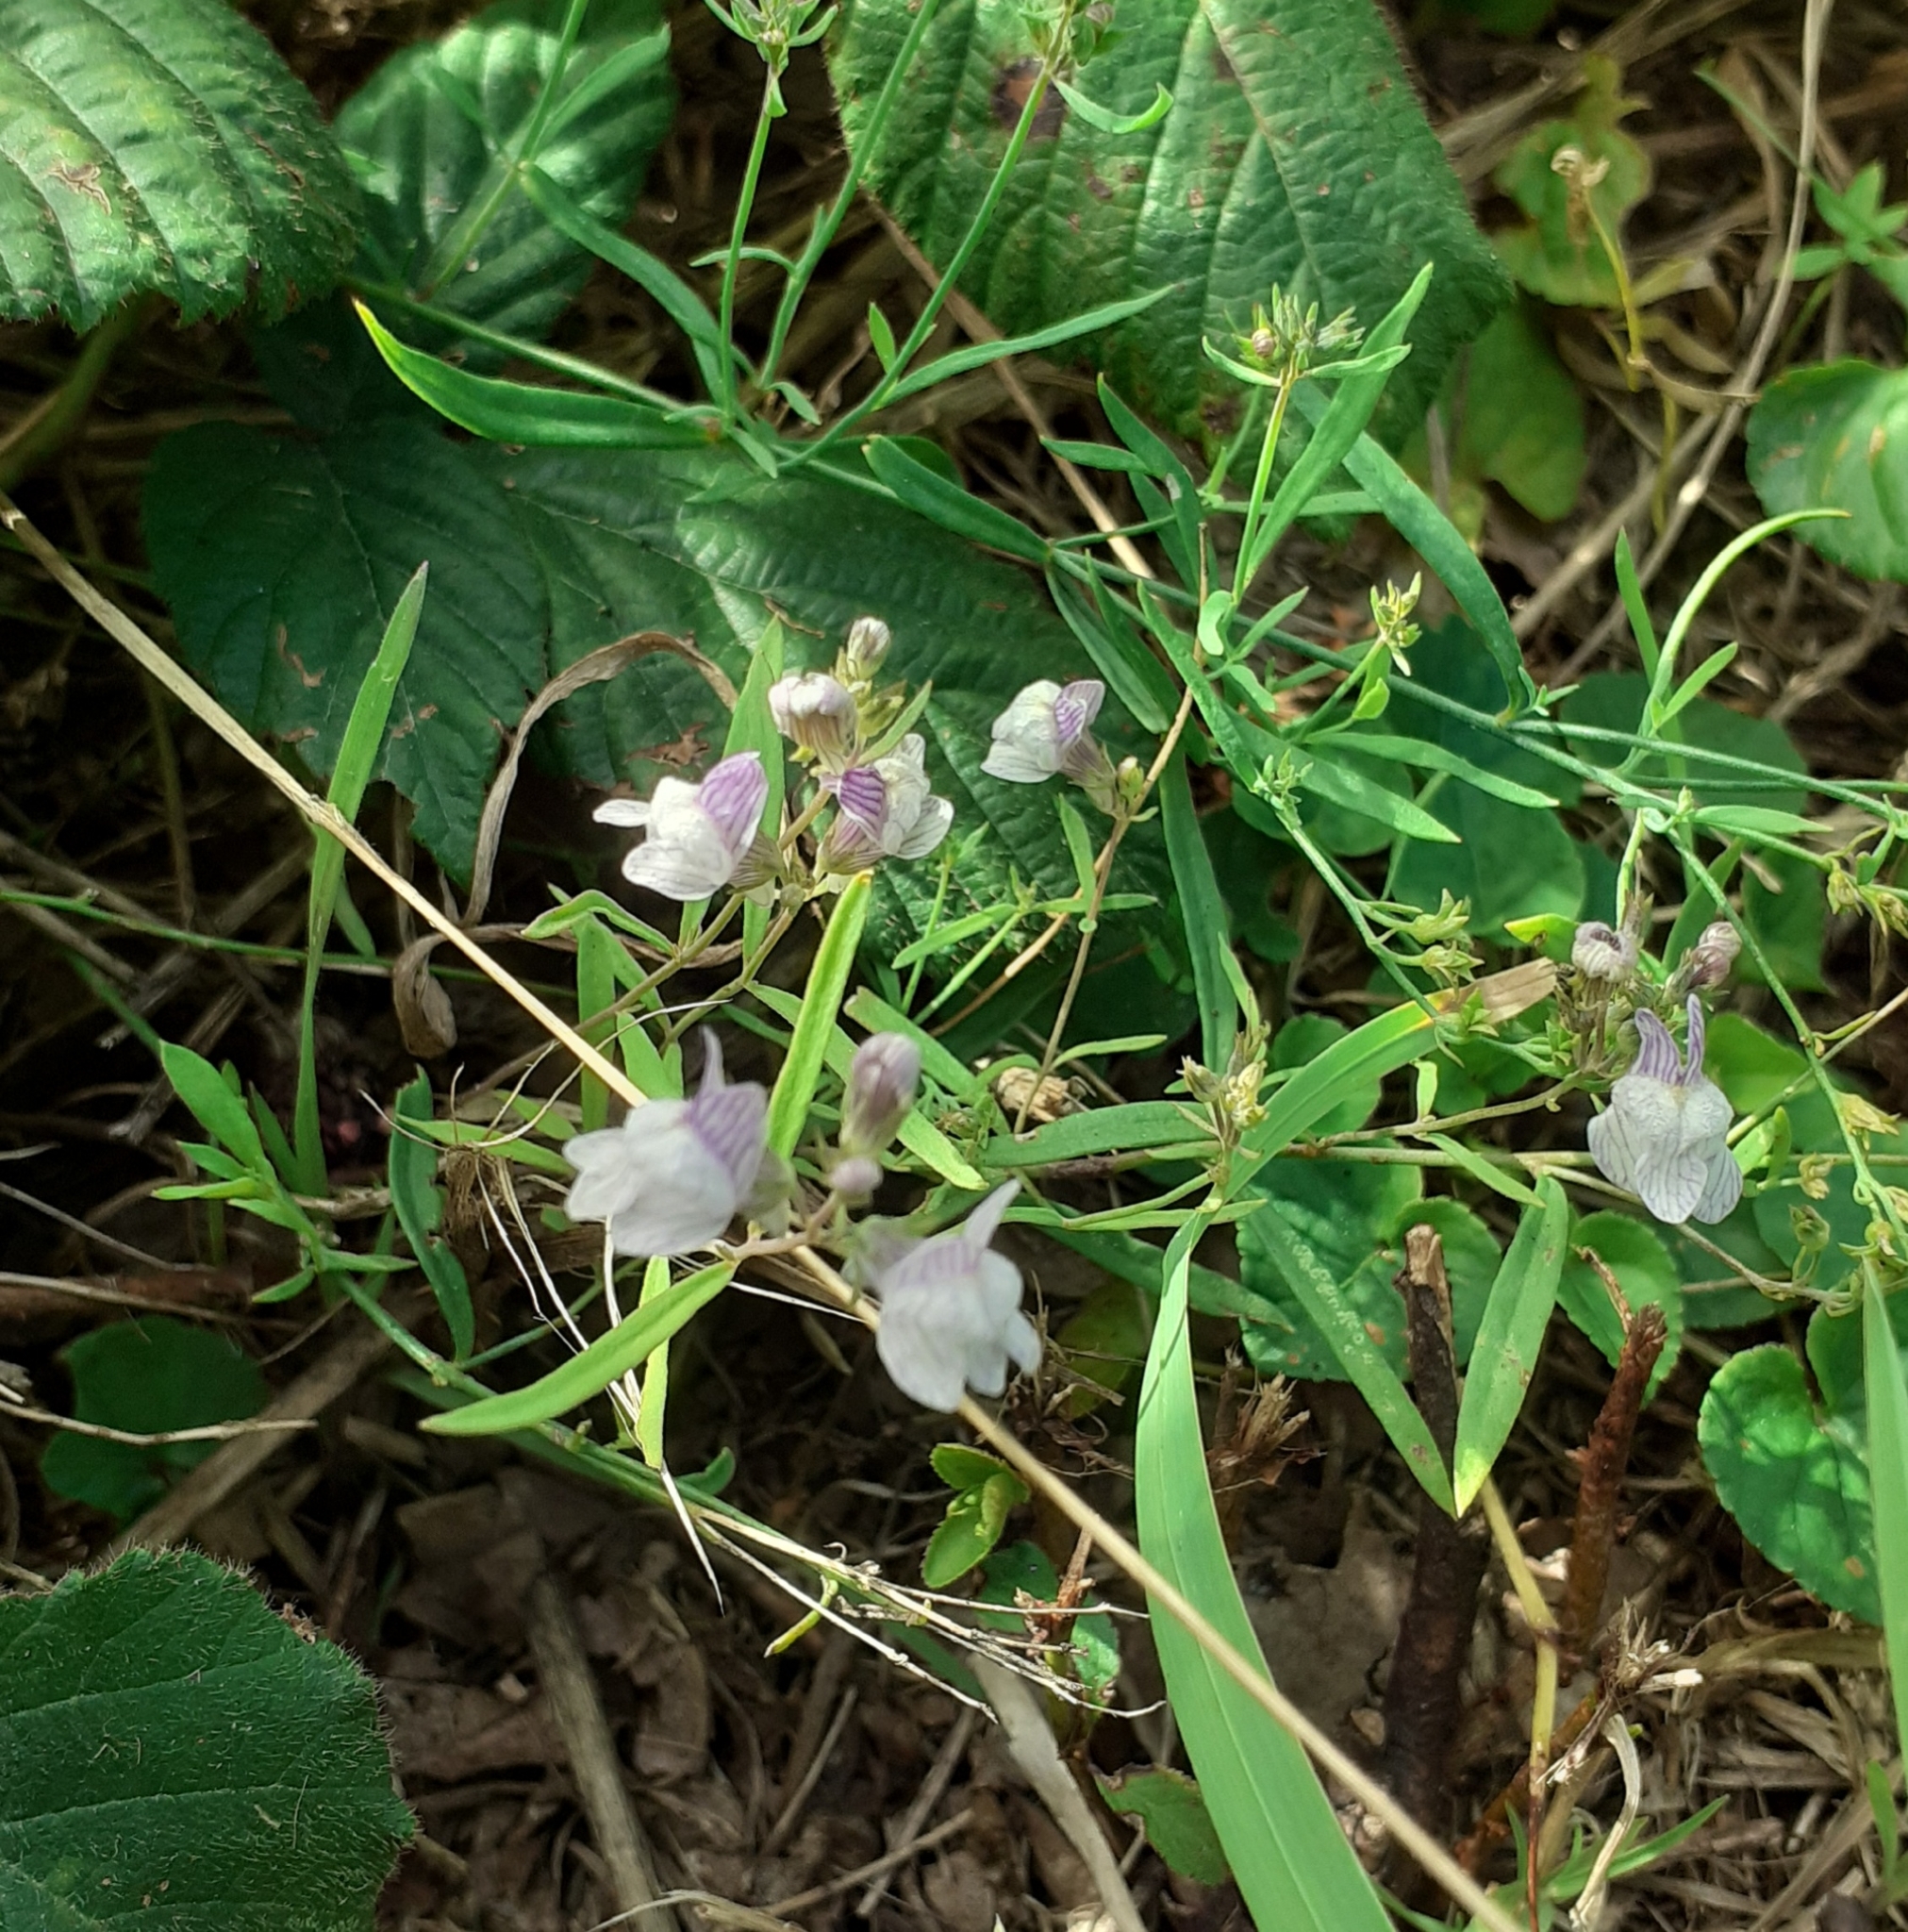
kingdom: Plantae
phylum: Tracheophyta
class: Magnoliopsida
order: Lamiales
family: Plantaginaceae
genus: Linaria
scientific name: Linaria repens
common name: Pale toadflax
